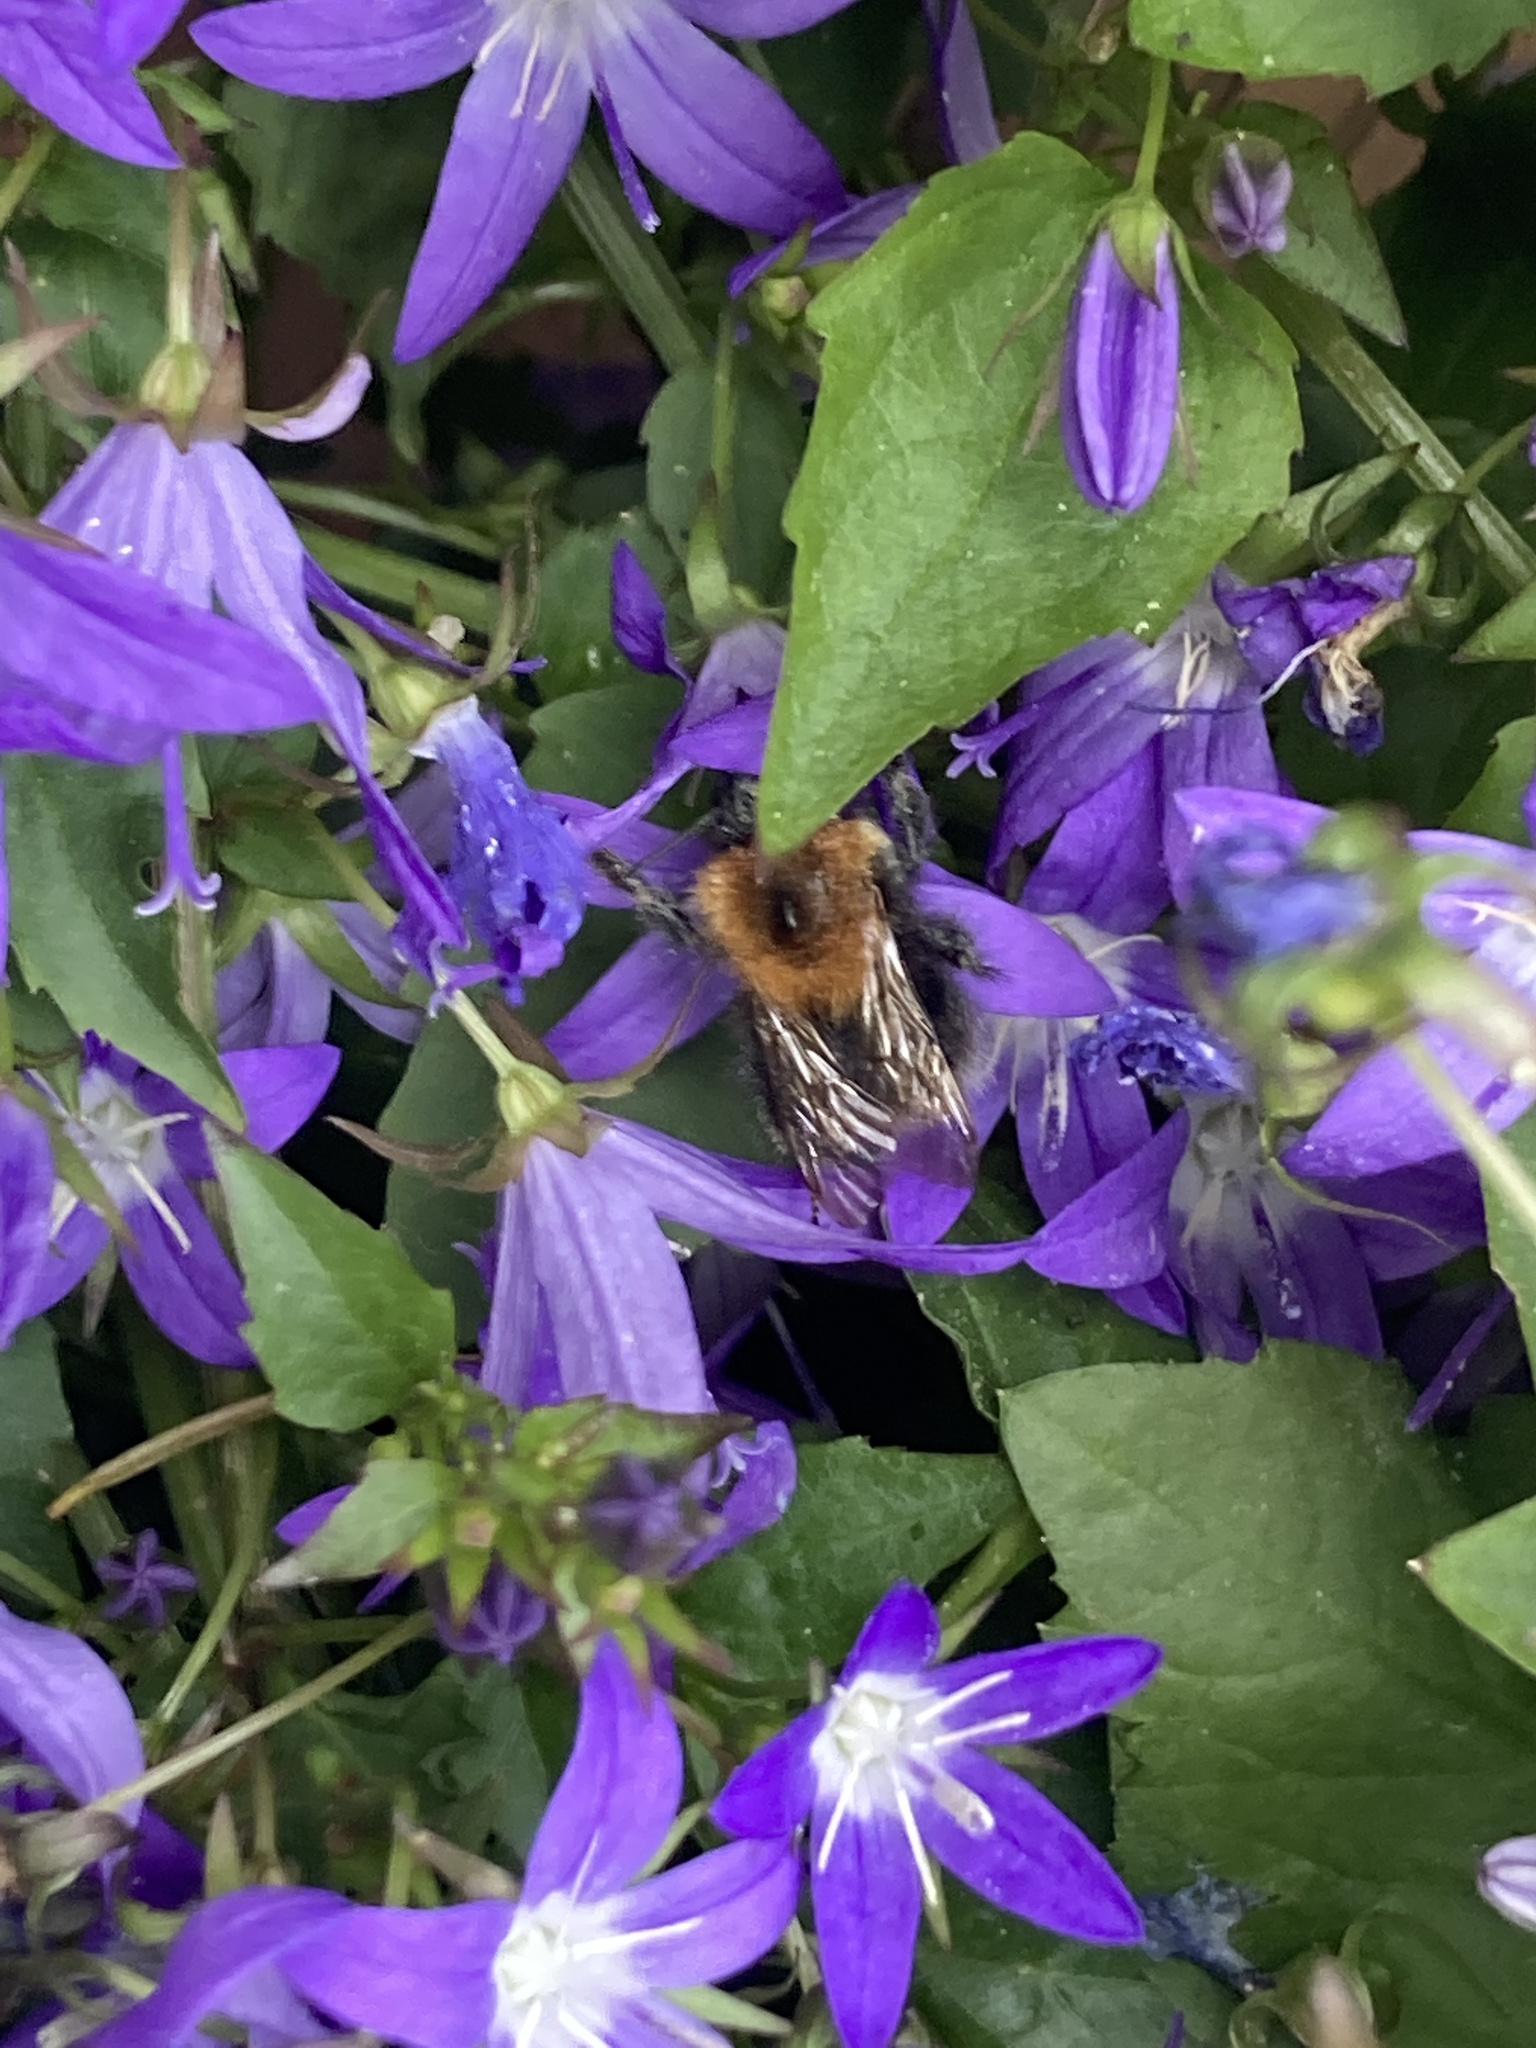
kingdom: Animalia
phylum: Arthropoda
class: Insecta
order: Hymenoptera
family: Apidae
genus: Bombus
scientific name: Bombus hypnorum
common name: New garden bumblebee
